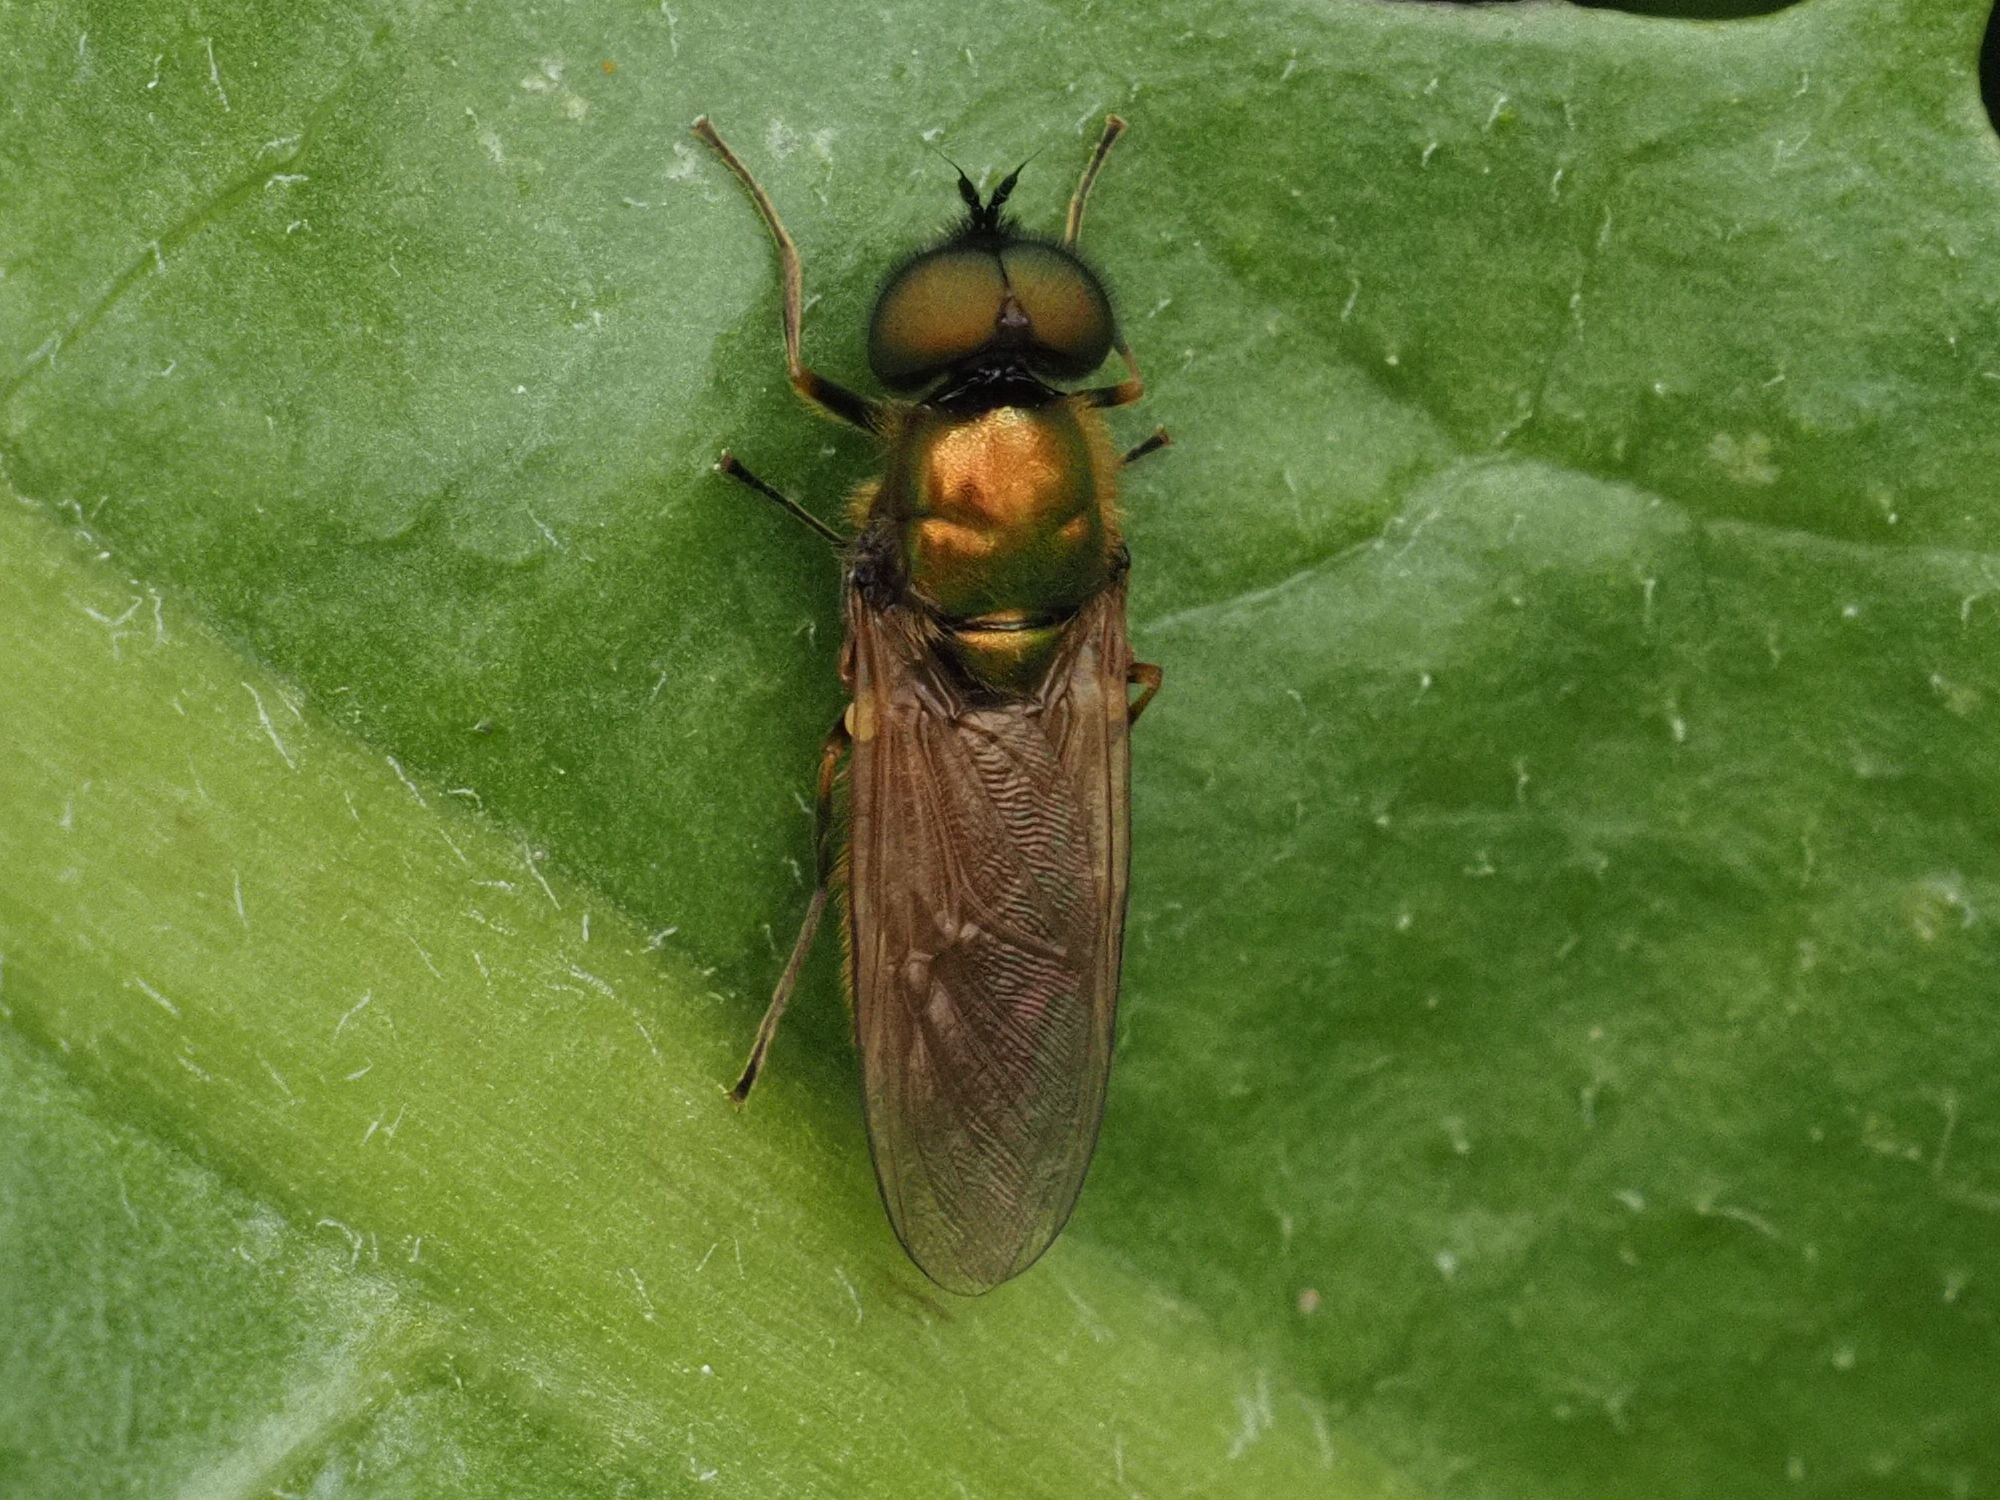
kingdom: Animalia
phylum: Arthropoda
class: Insecta
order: Diptera
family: Stratiomyidae
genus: Chloromyia
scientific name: Chloromyia formosa
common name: Soldier fly
